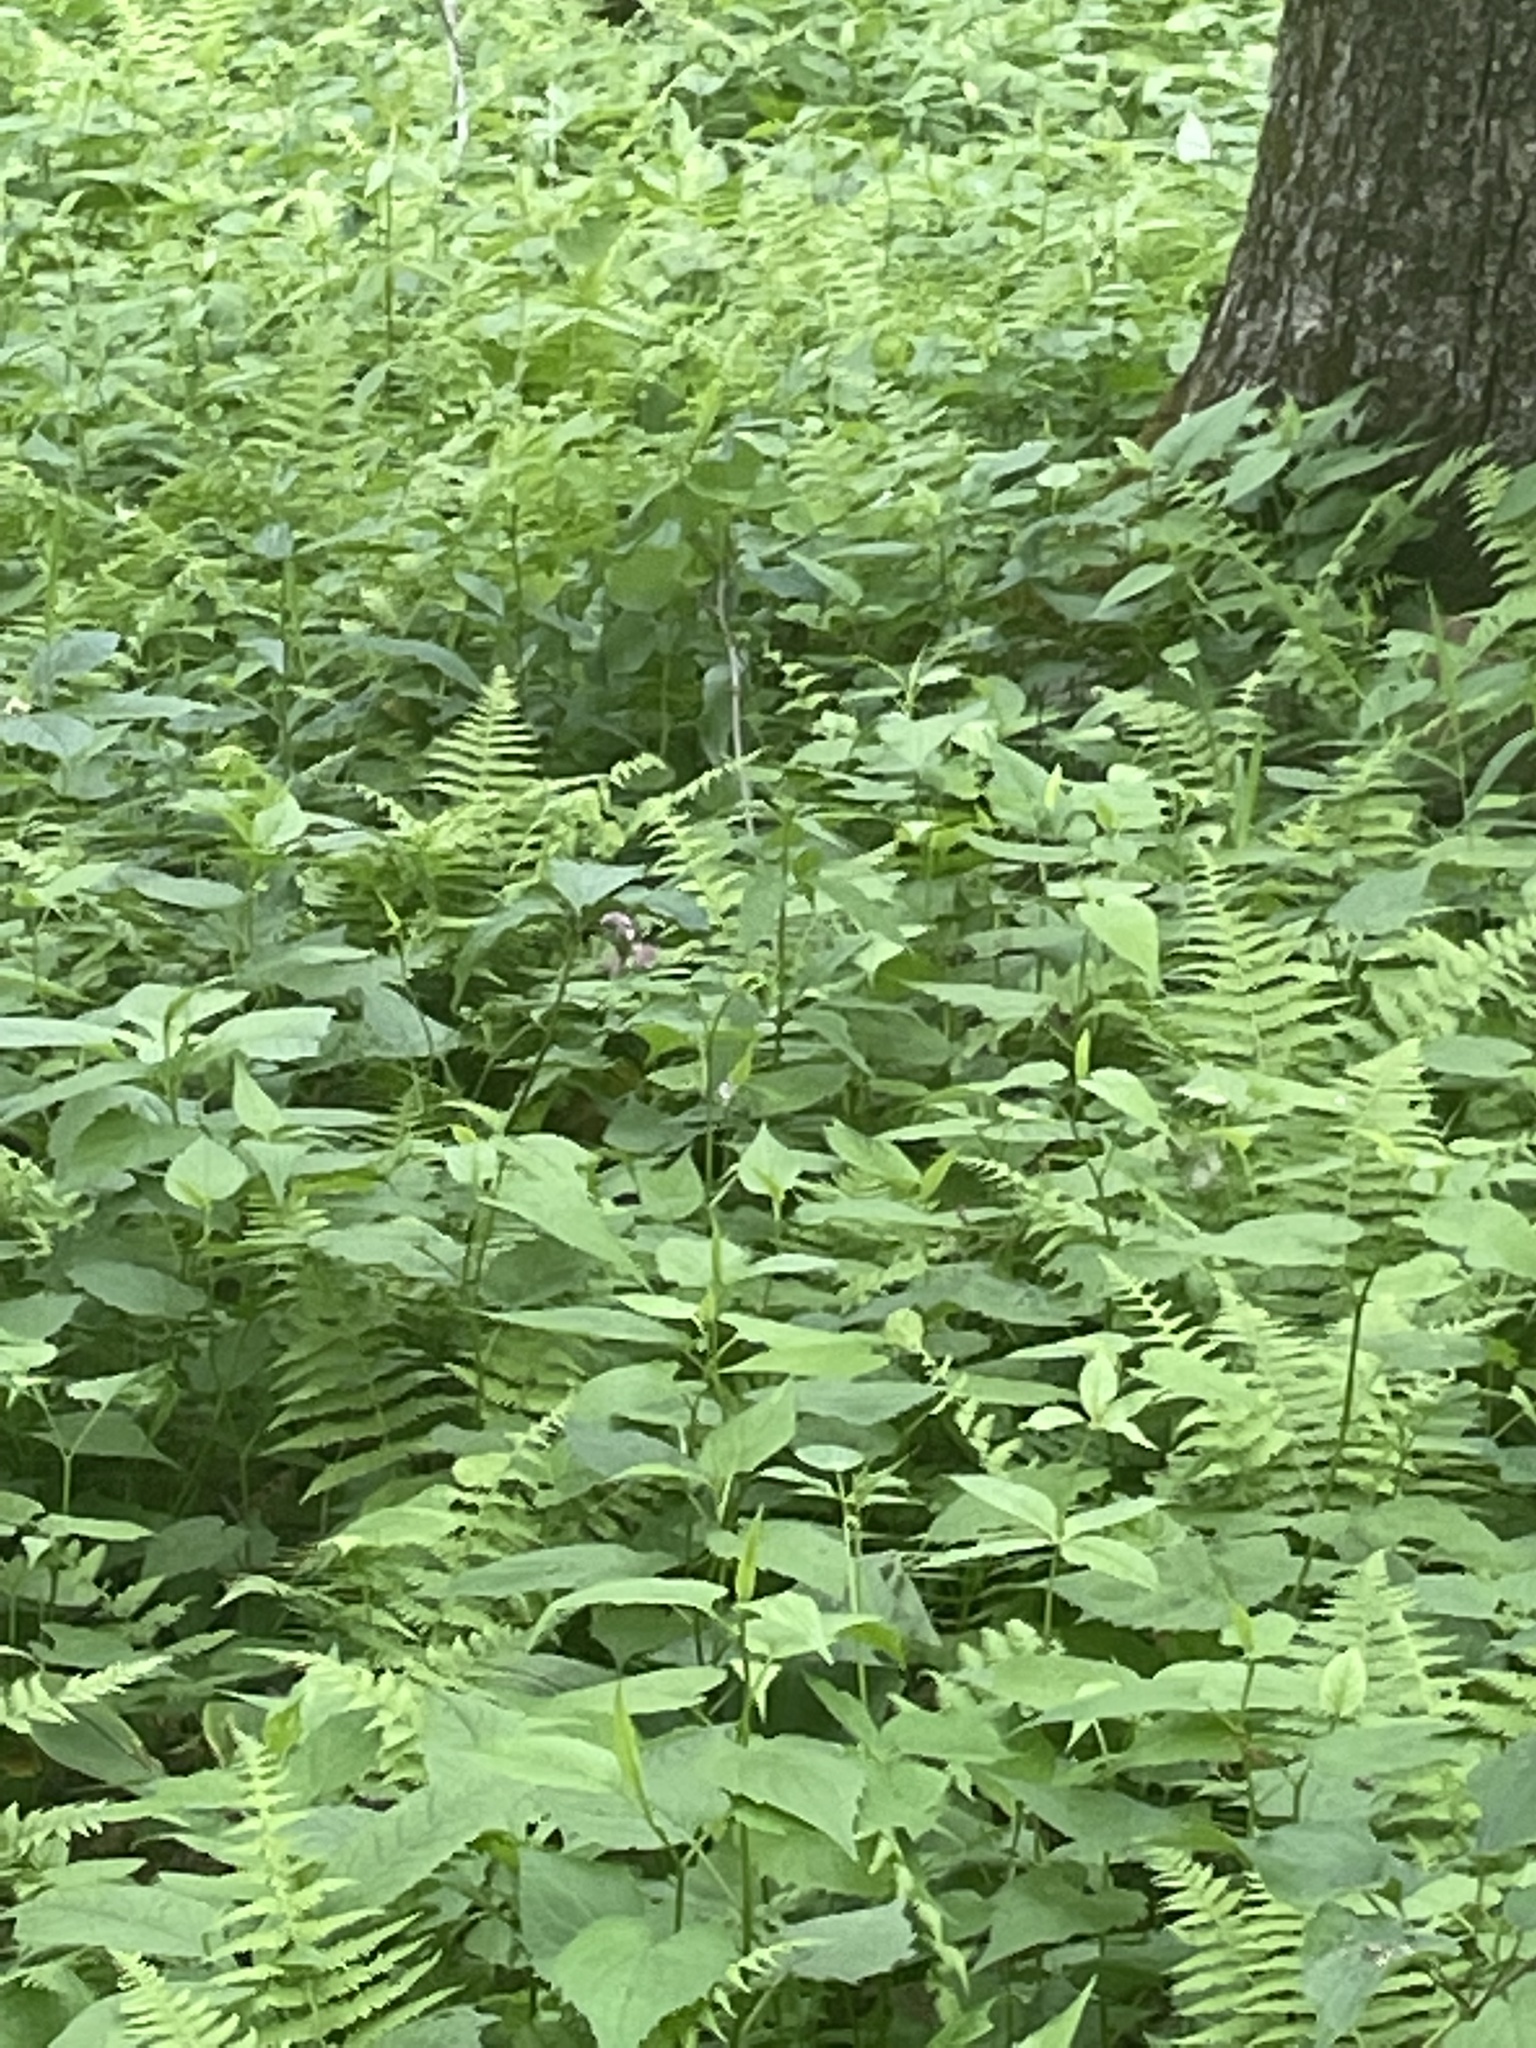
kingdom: Plantae
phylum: Tracheophyta
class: Liliopsida
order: Liliales
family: Melanthiaceae
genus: Trillium
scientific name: Trillium catesbaei
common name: Bashful trillium
